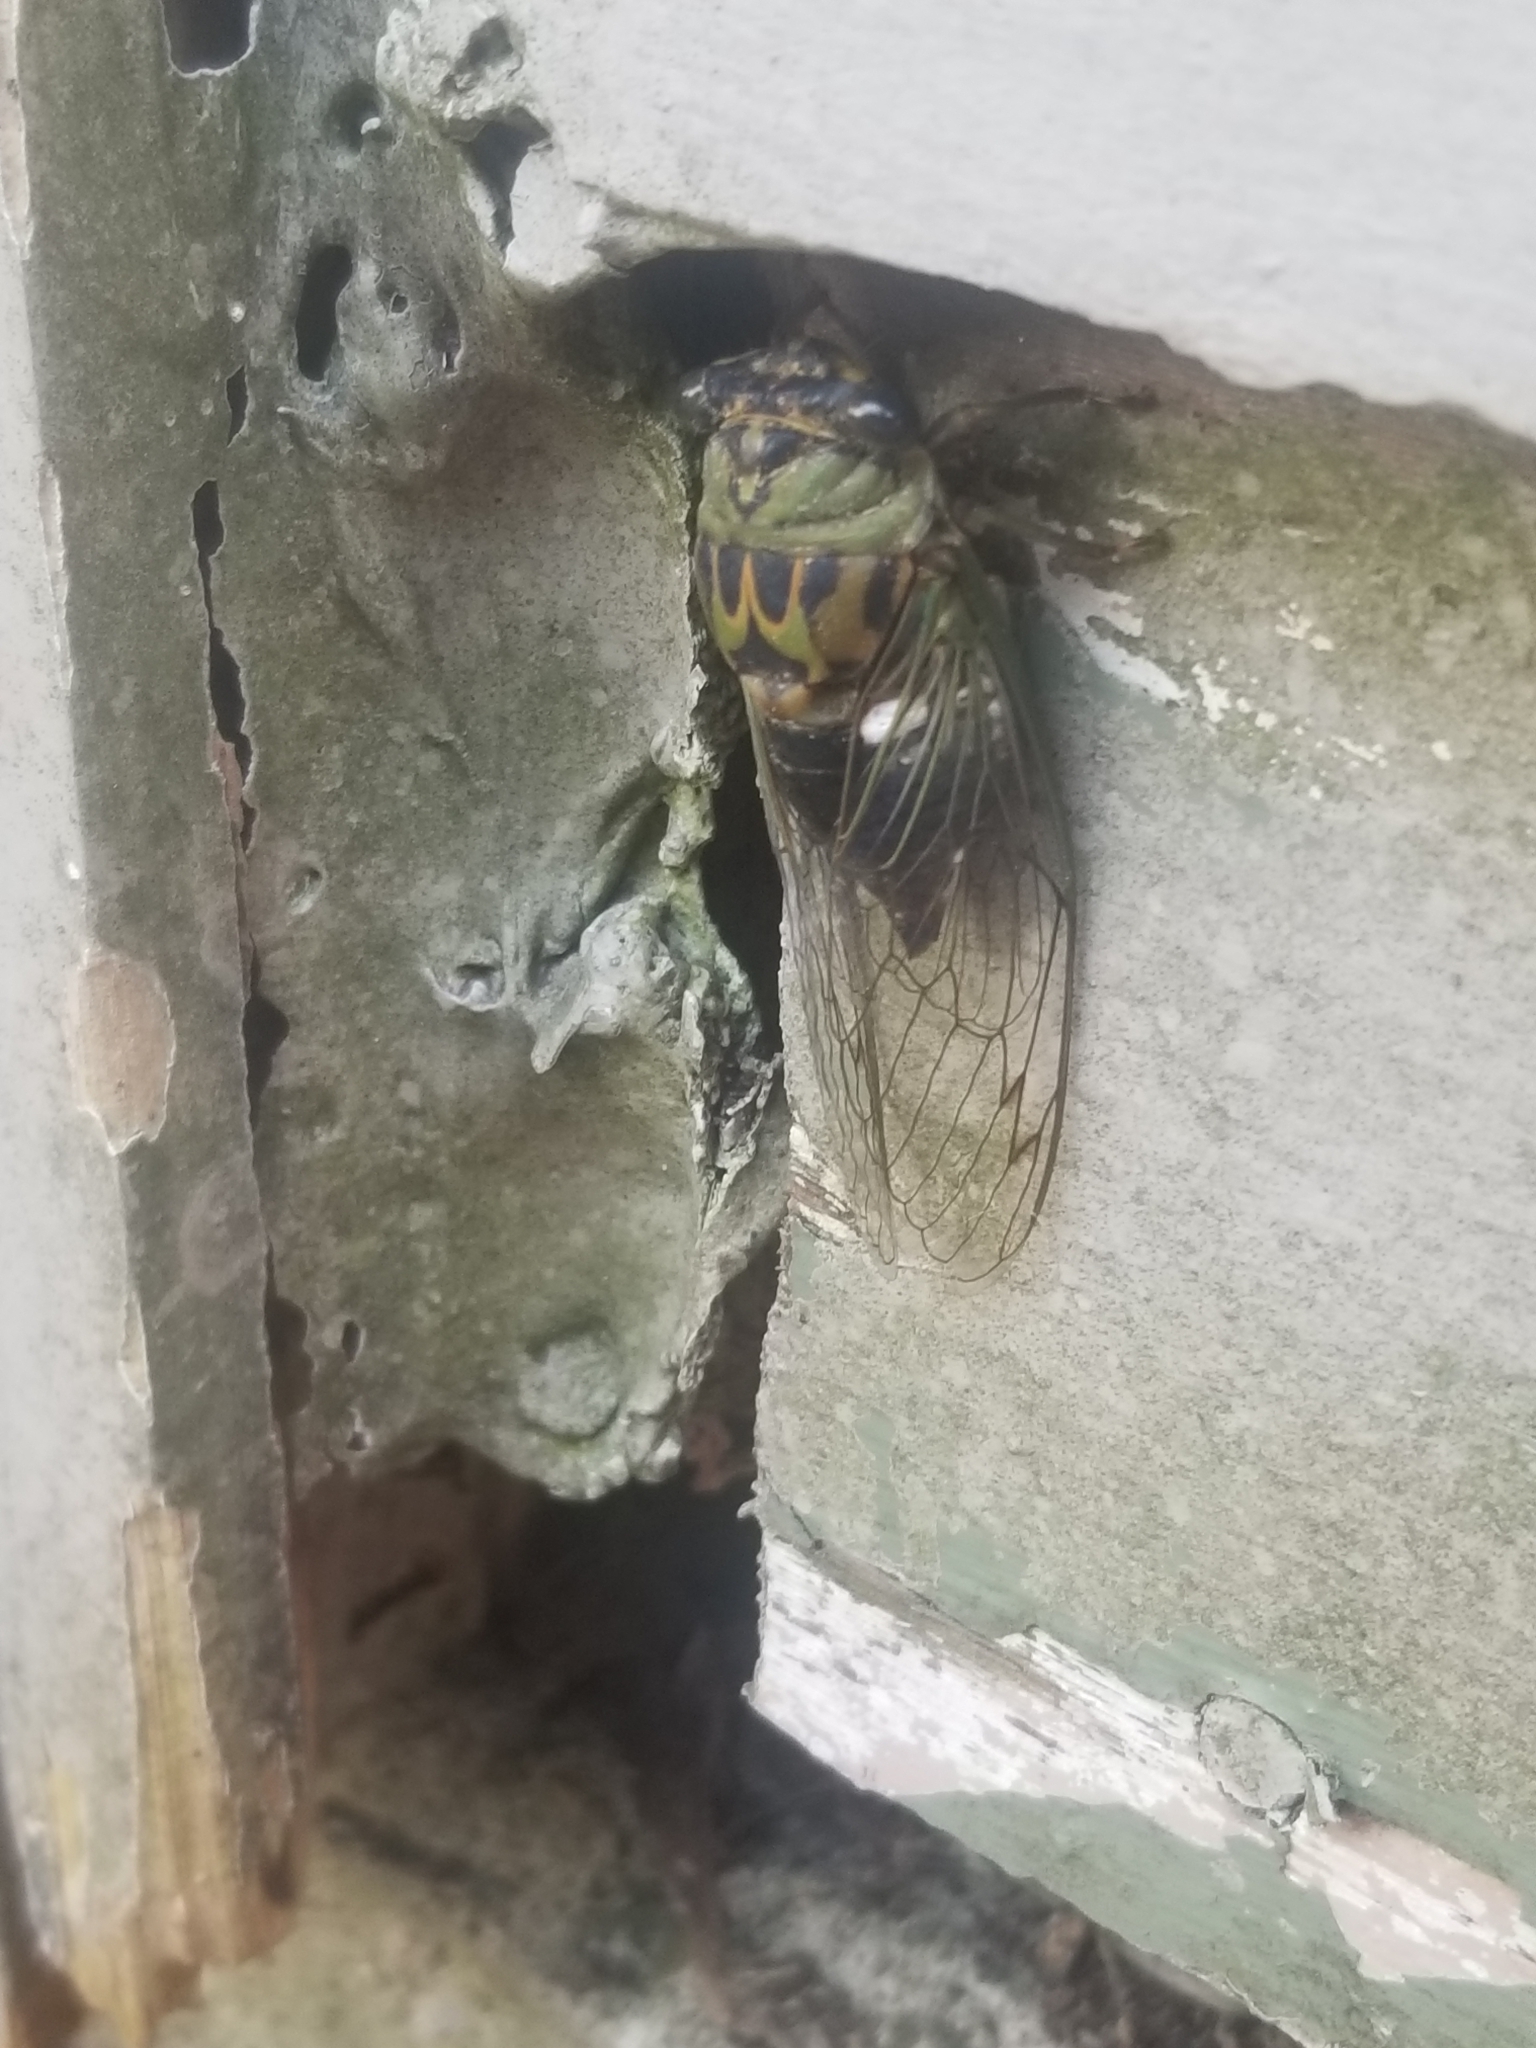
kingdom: Animalia
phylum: Arthropoda
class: Insecta
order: Hemiptera
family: Cicadidae
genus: Neotibicen
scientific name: Neotibicen pruinosus
